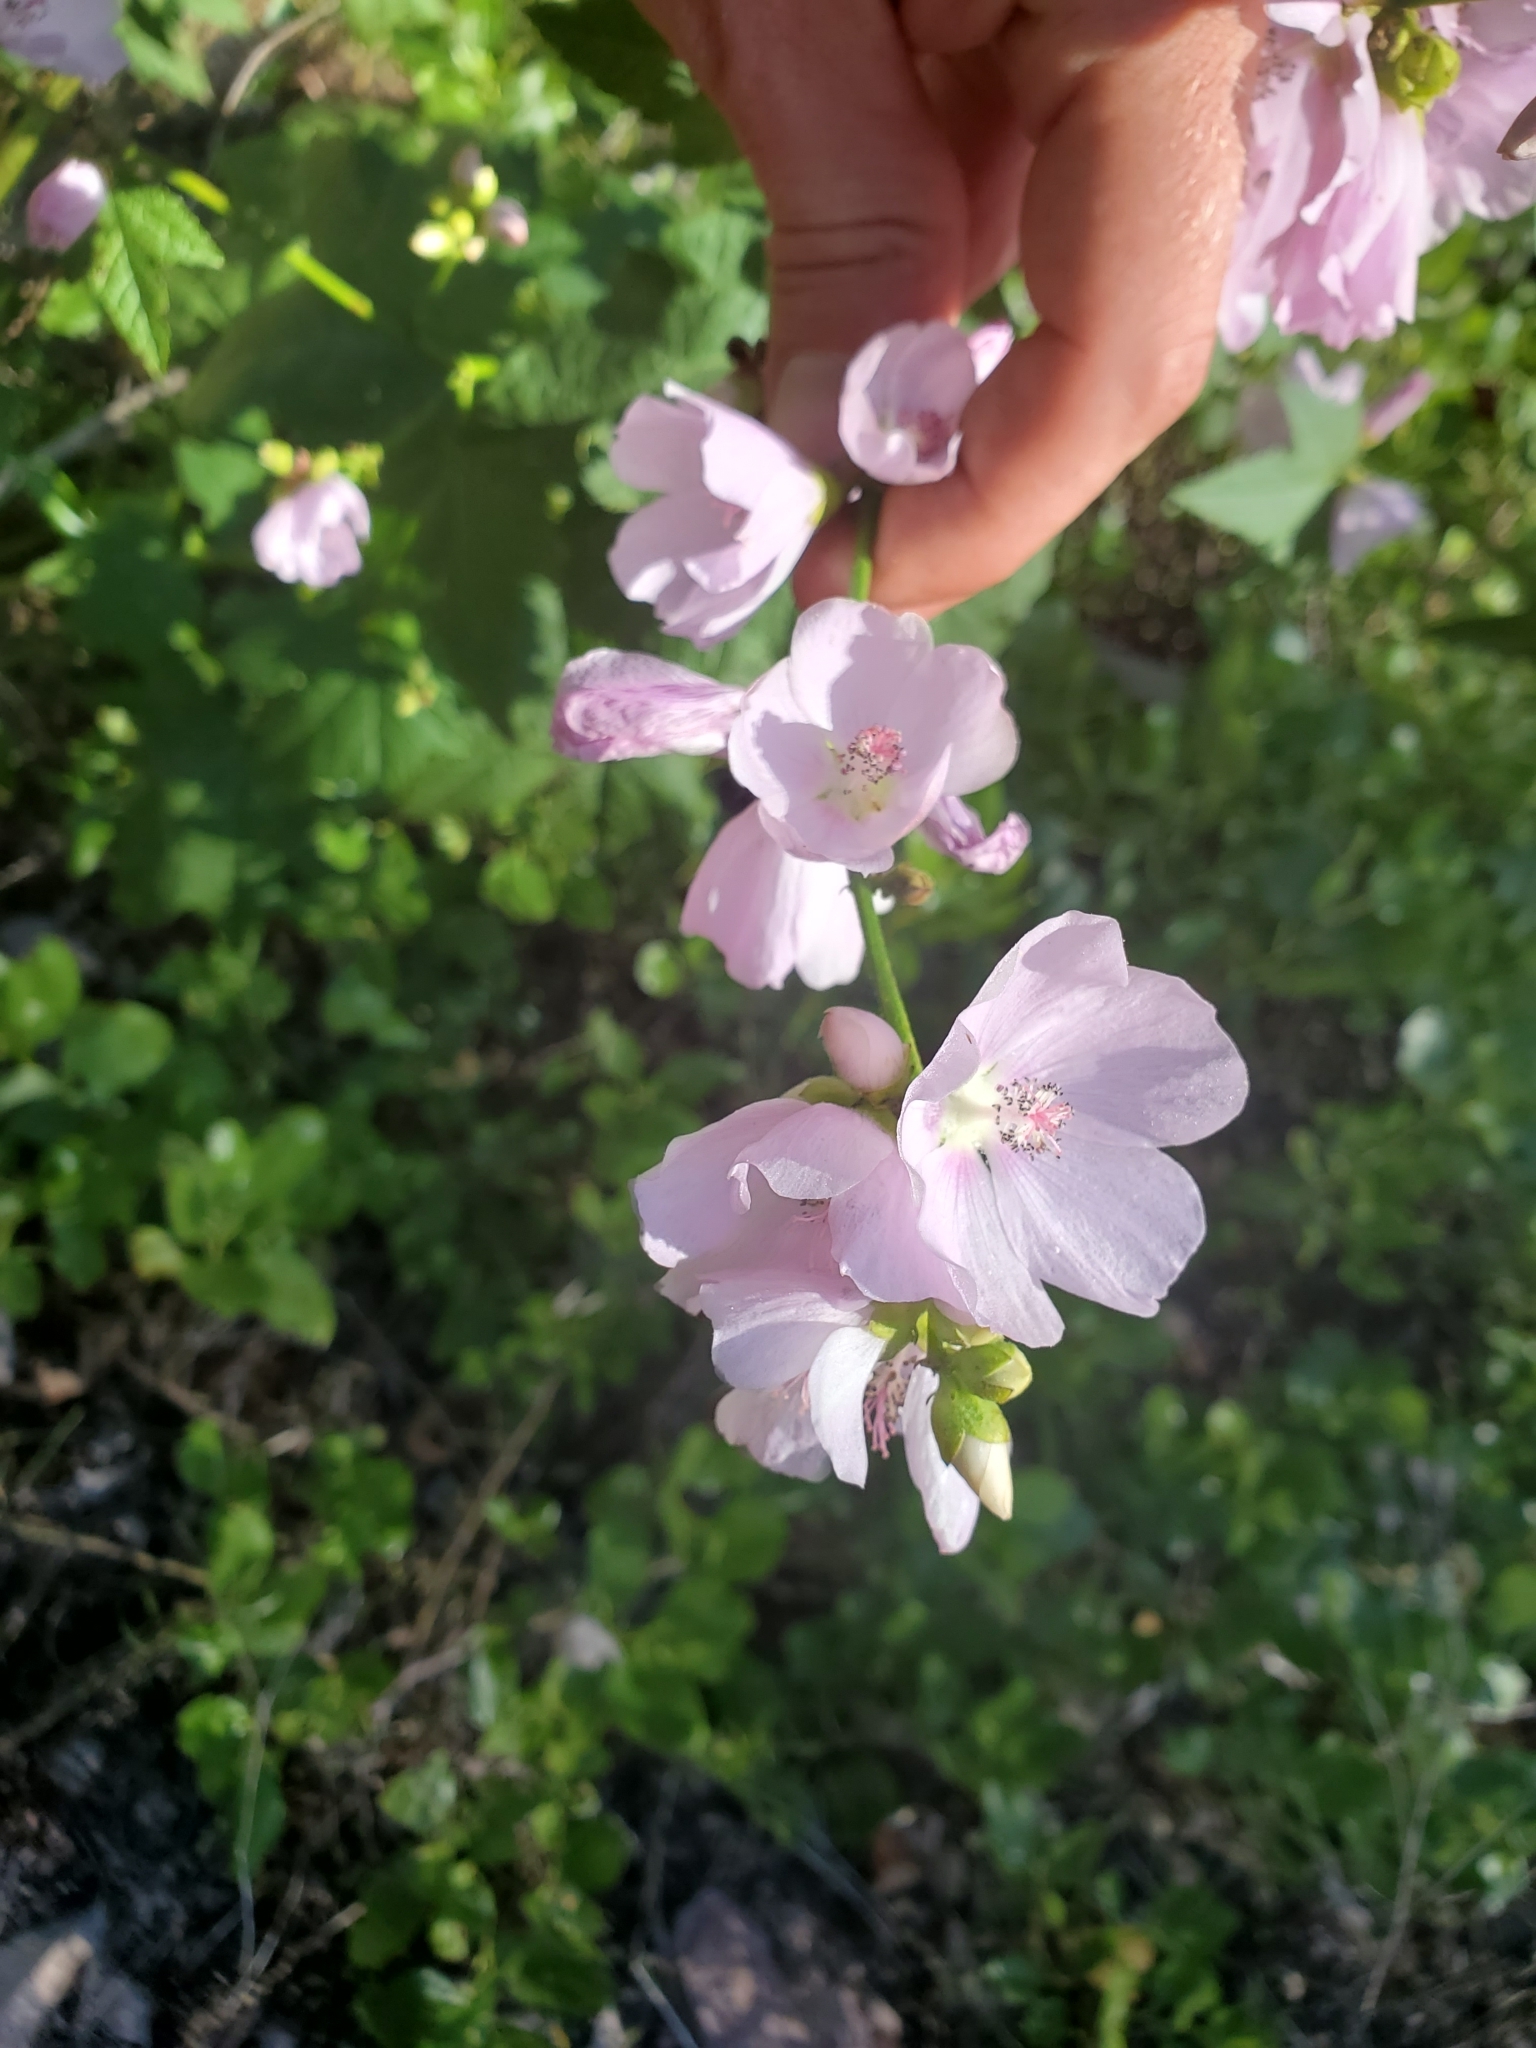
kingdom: Plantae
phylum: Tracheophyta
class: Magnoliopsida
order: Malvales
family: Malvaceae
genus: Iliamna
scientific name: Iliamna rivularis
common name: Wild hollyhock
